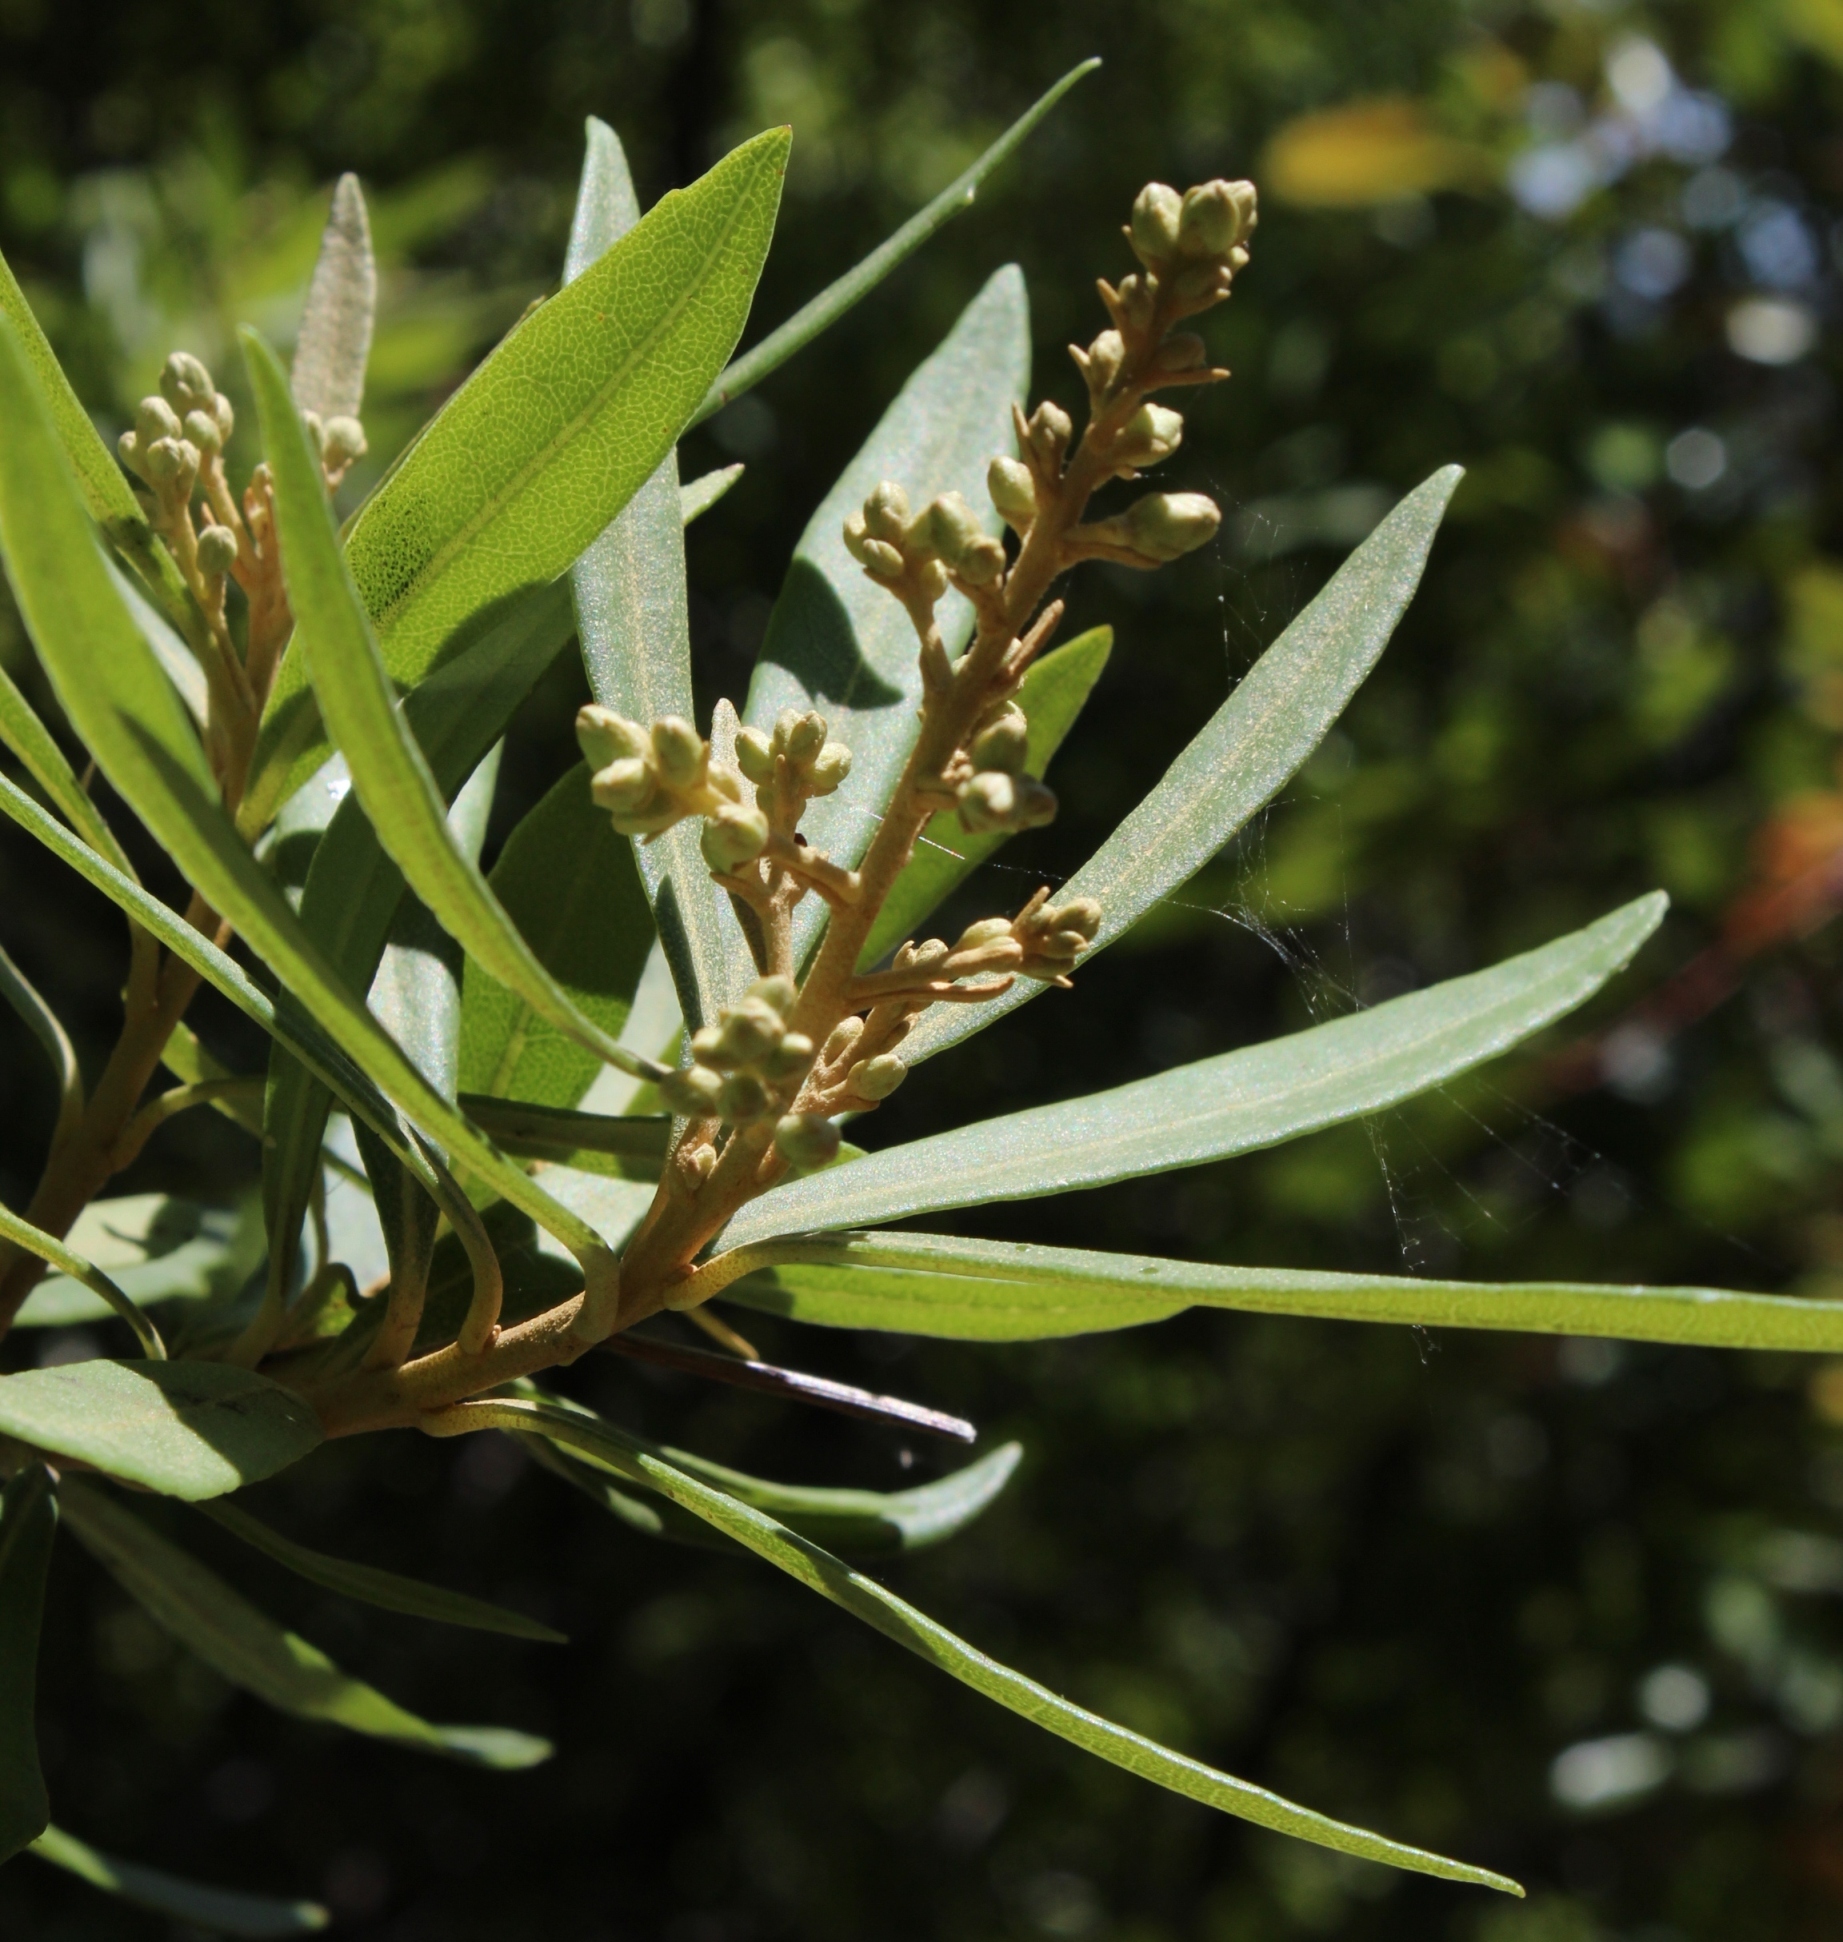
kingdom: Plantae
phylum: Tracheophyta
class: Magnoliopsida
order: Asterales
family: Asteraceae
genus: Brachylaena
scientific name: Brachylaena neriifolia
